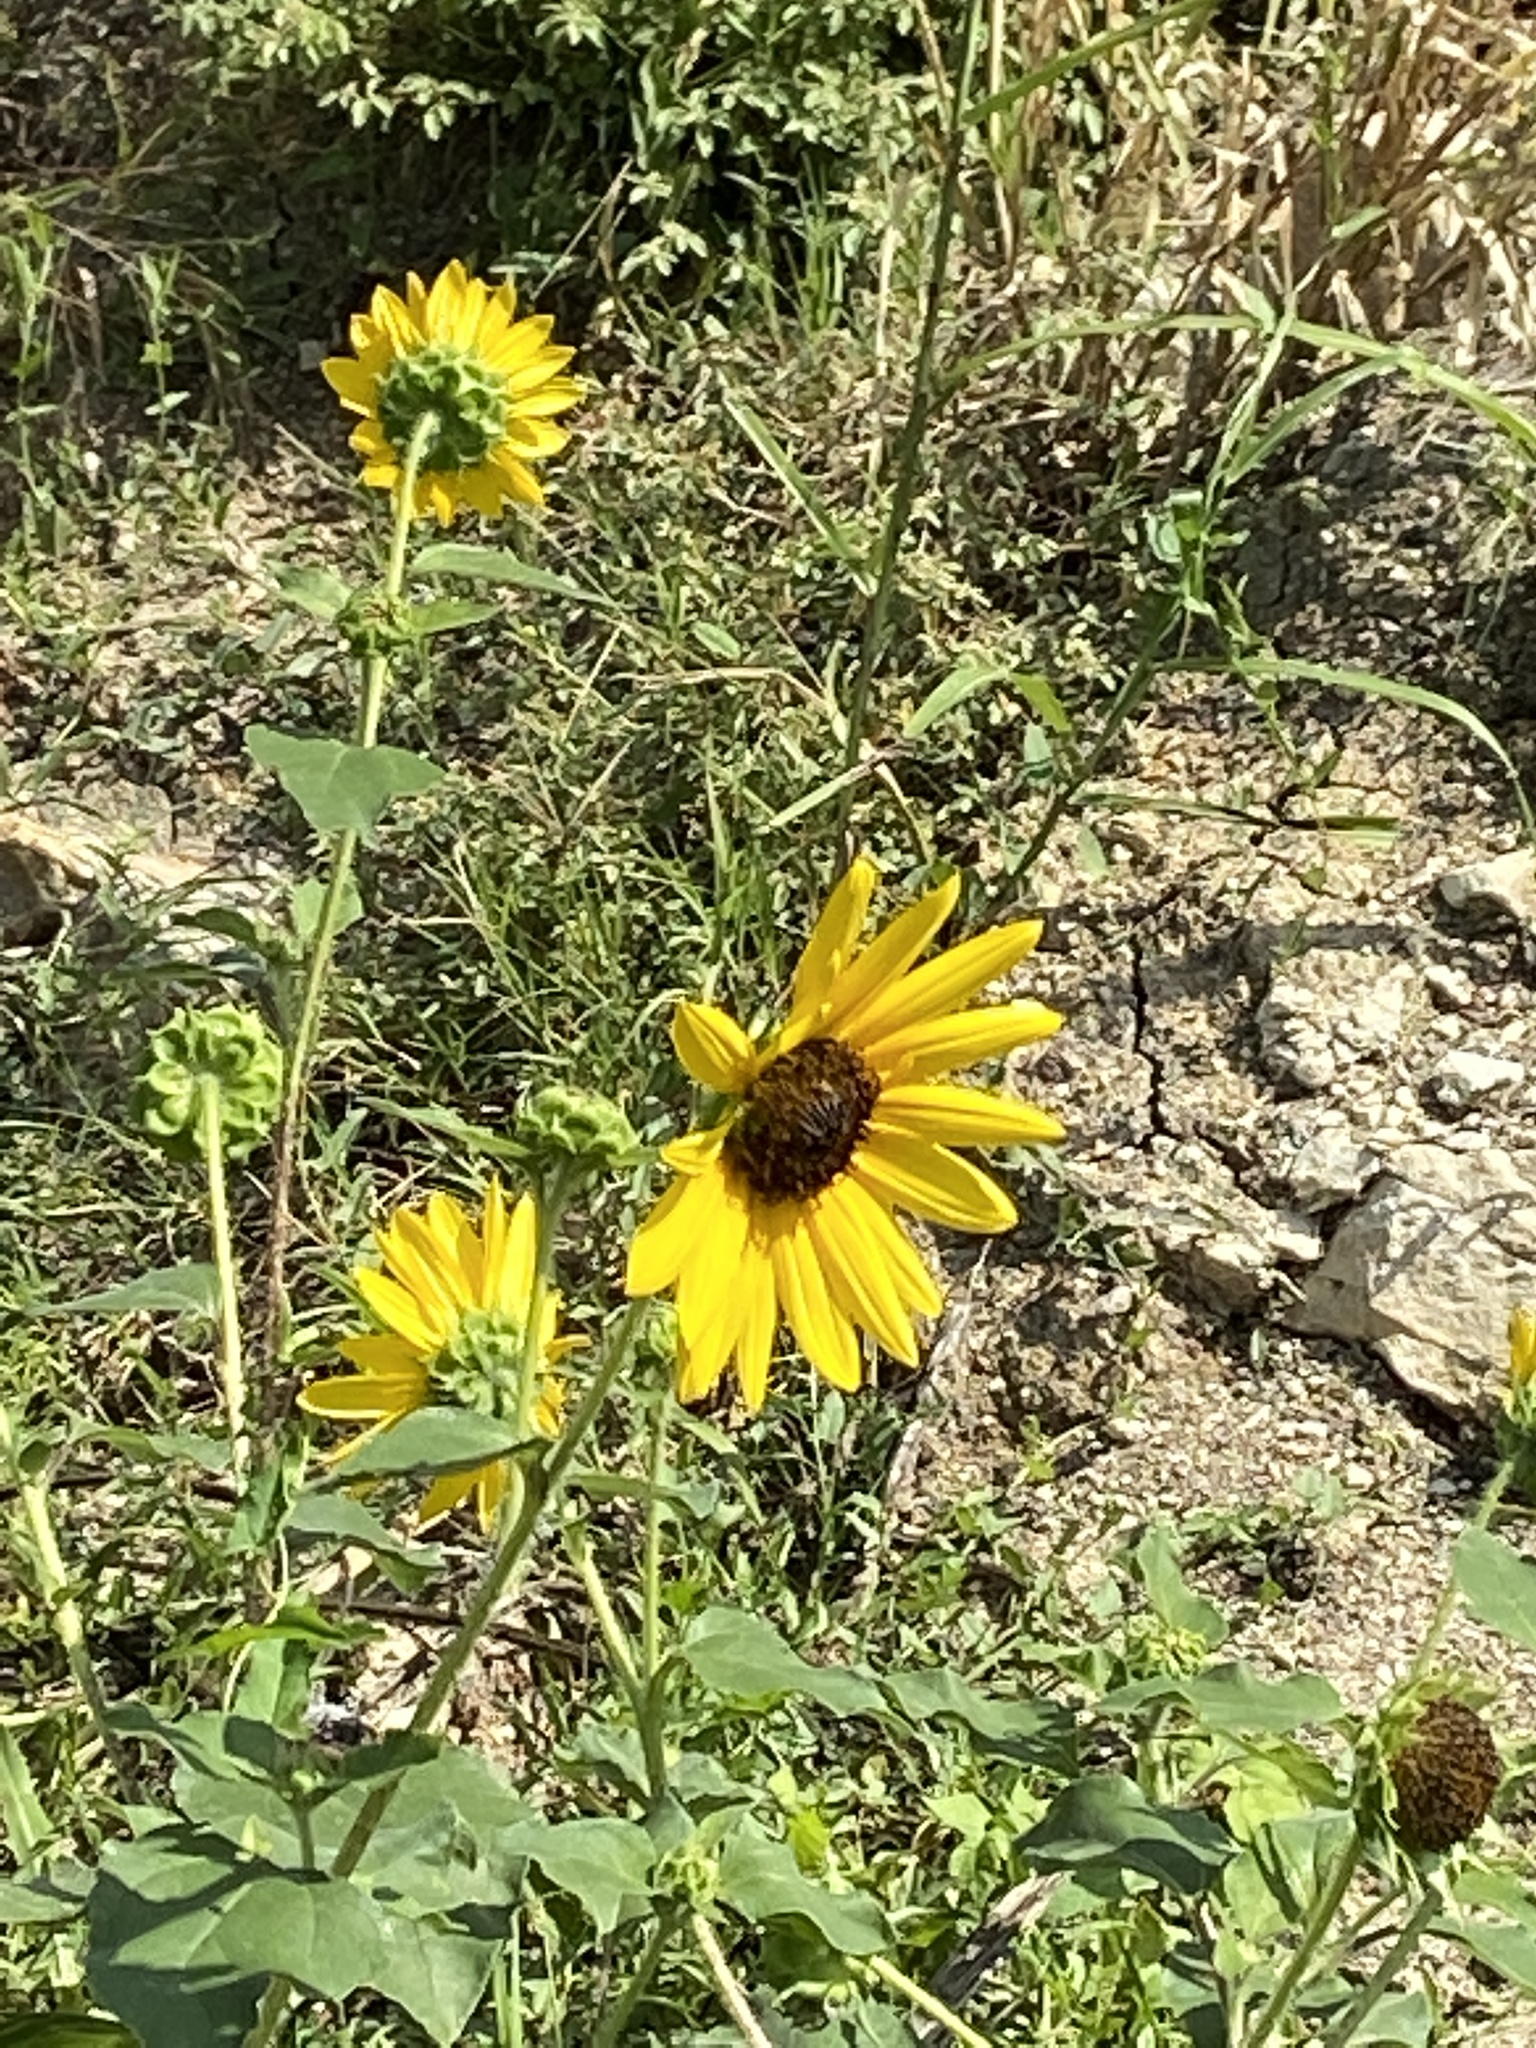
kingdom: Plantae
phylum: Tracheophyta
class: Magnoliopsida
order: Asterales
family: Asteraceae
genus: Helianthus
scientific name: Helianthus annuus
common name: Sunflower
